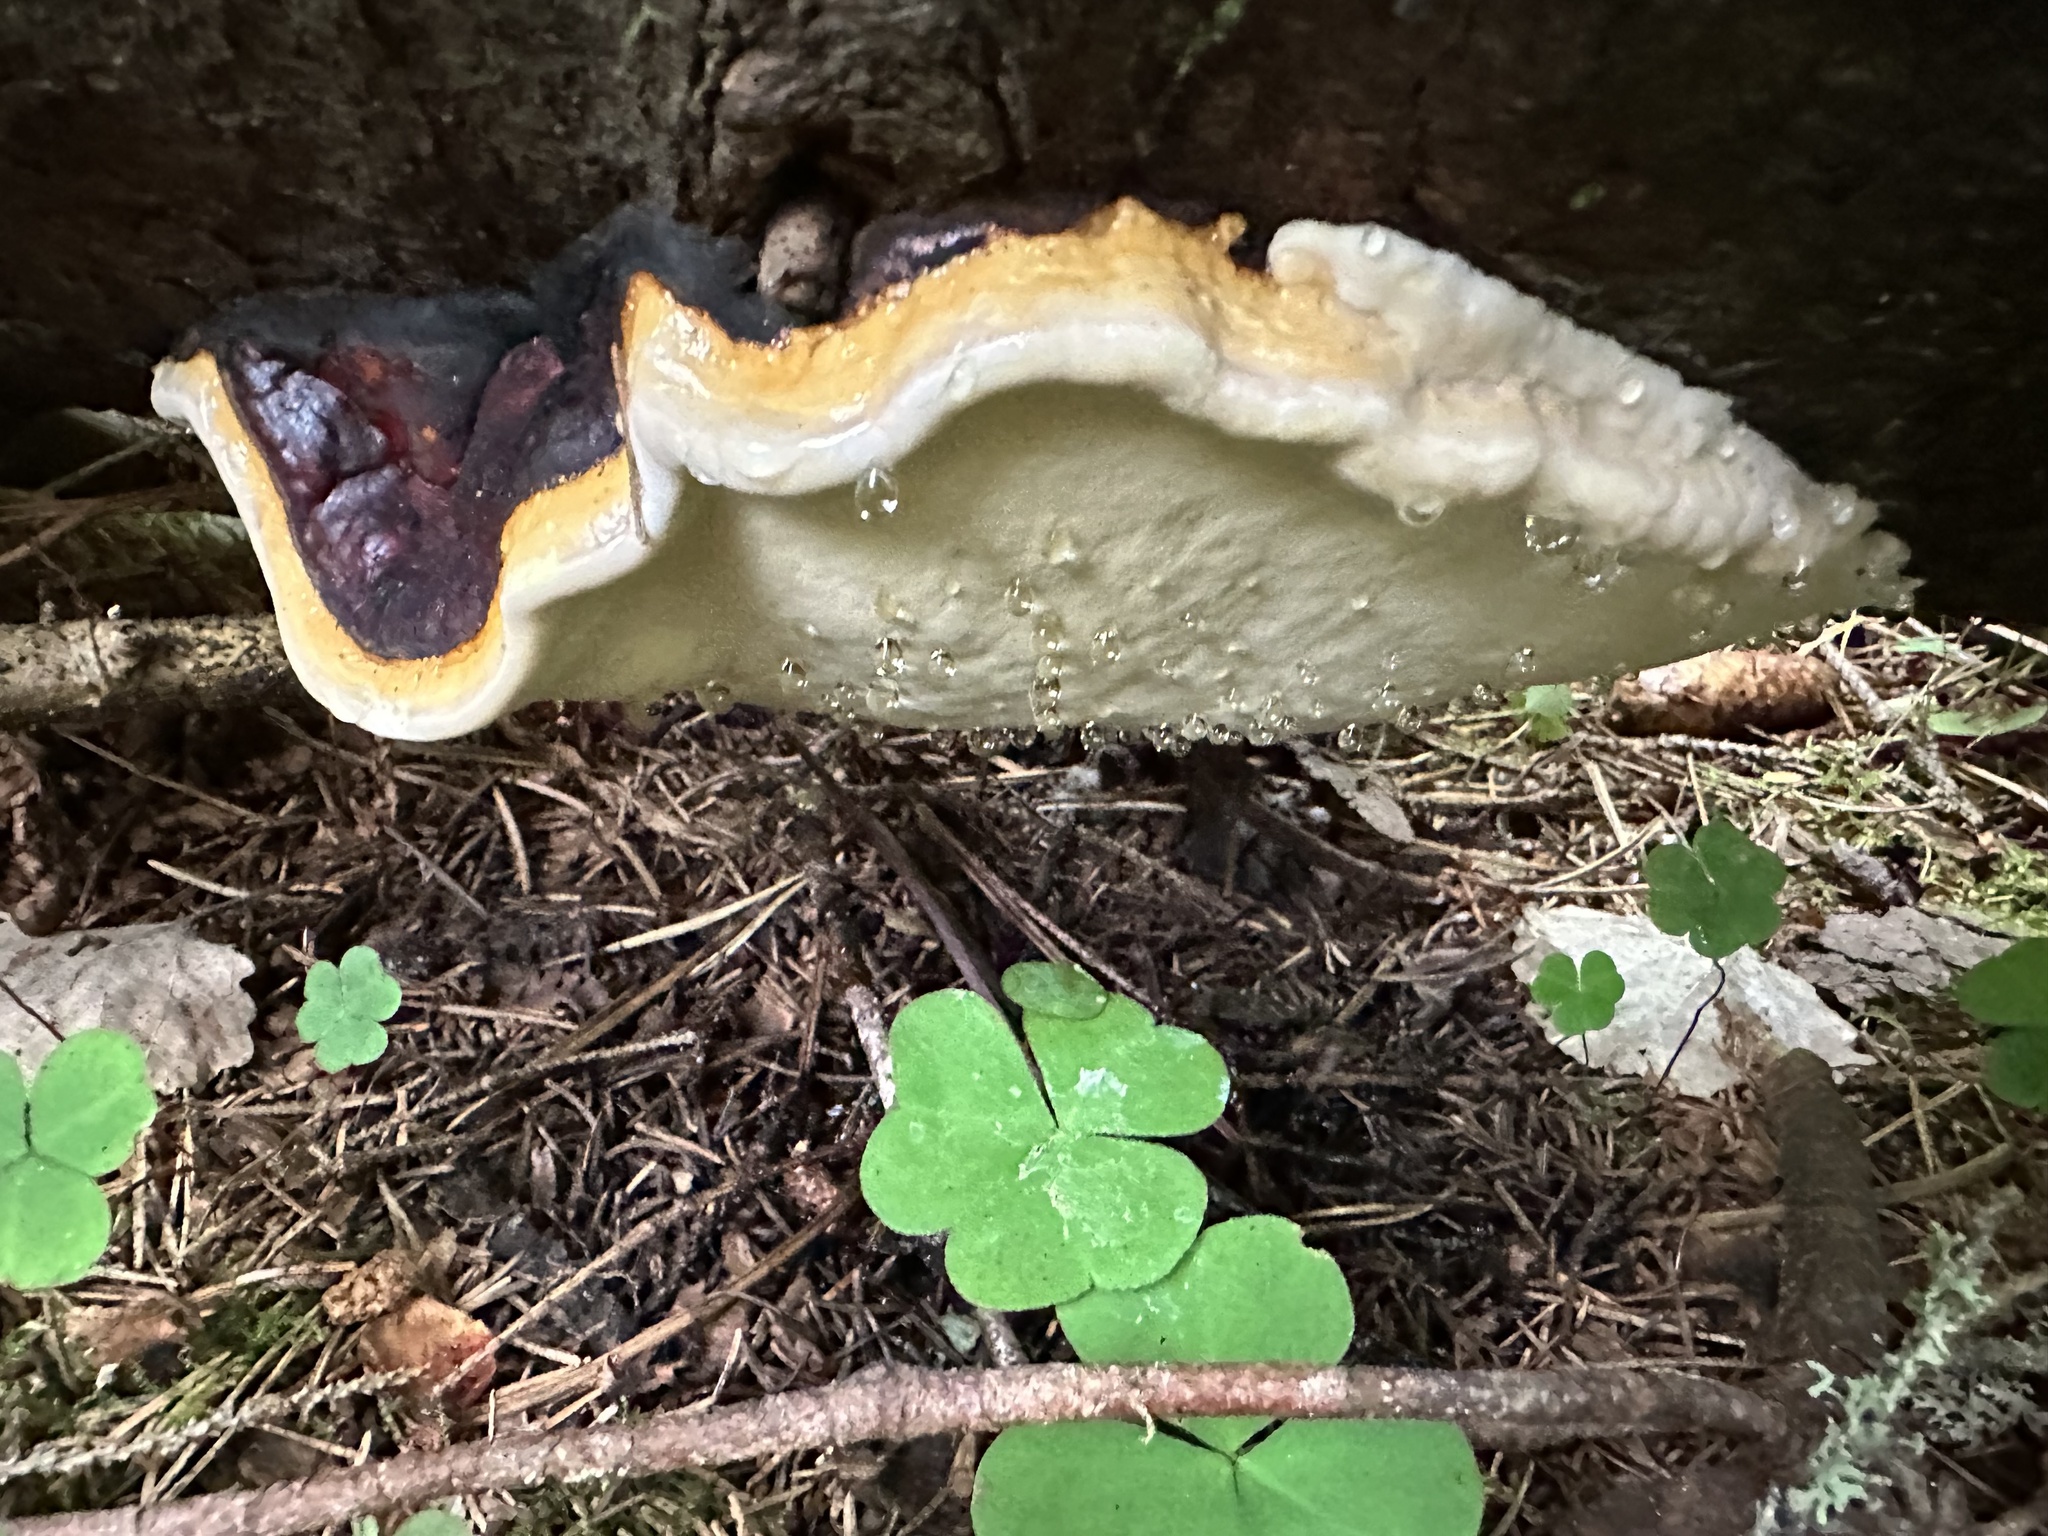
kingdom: Fungi
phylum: Basidiomycota
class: Agaricomycetes
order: Polyporales
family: Fomitopsidaceae
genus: Fomitopsis
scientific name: Fomitopsis pinicola
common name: Red-belted bracket
